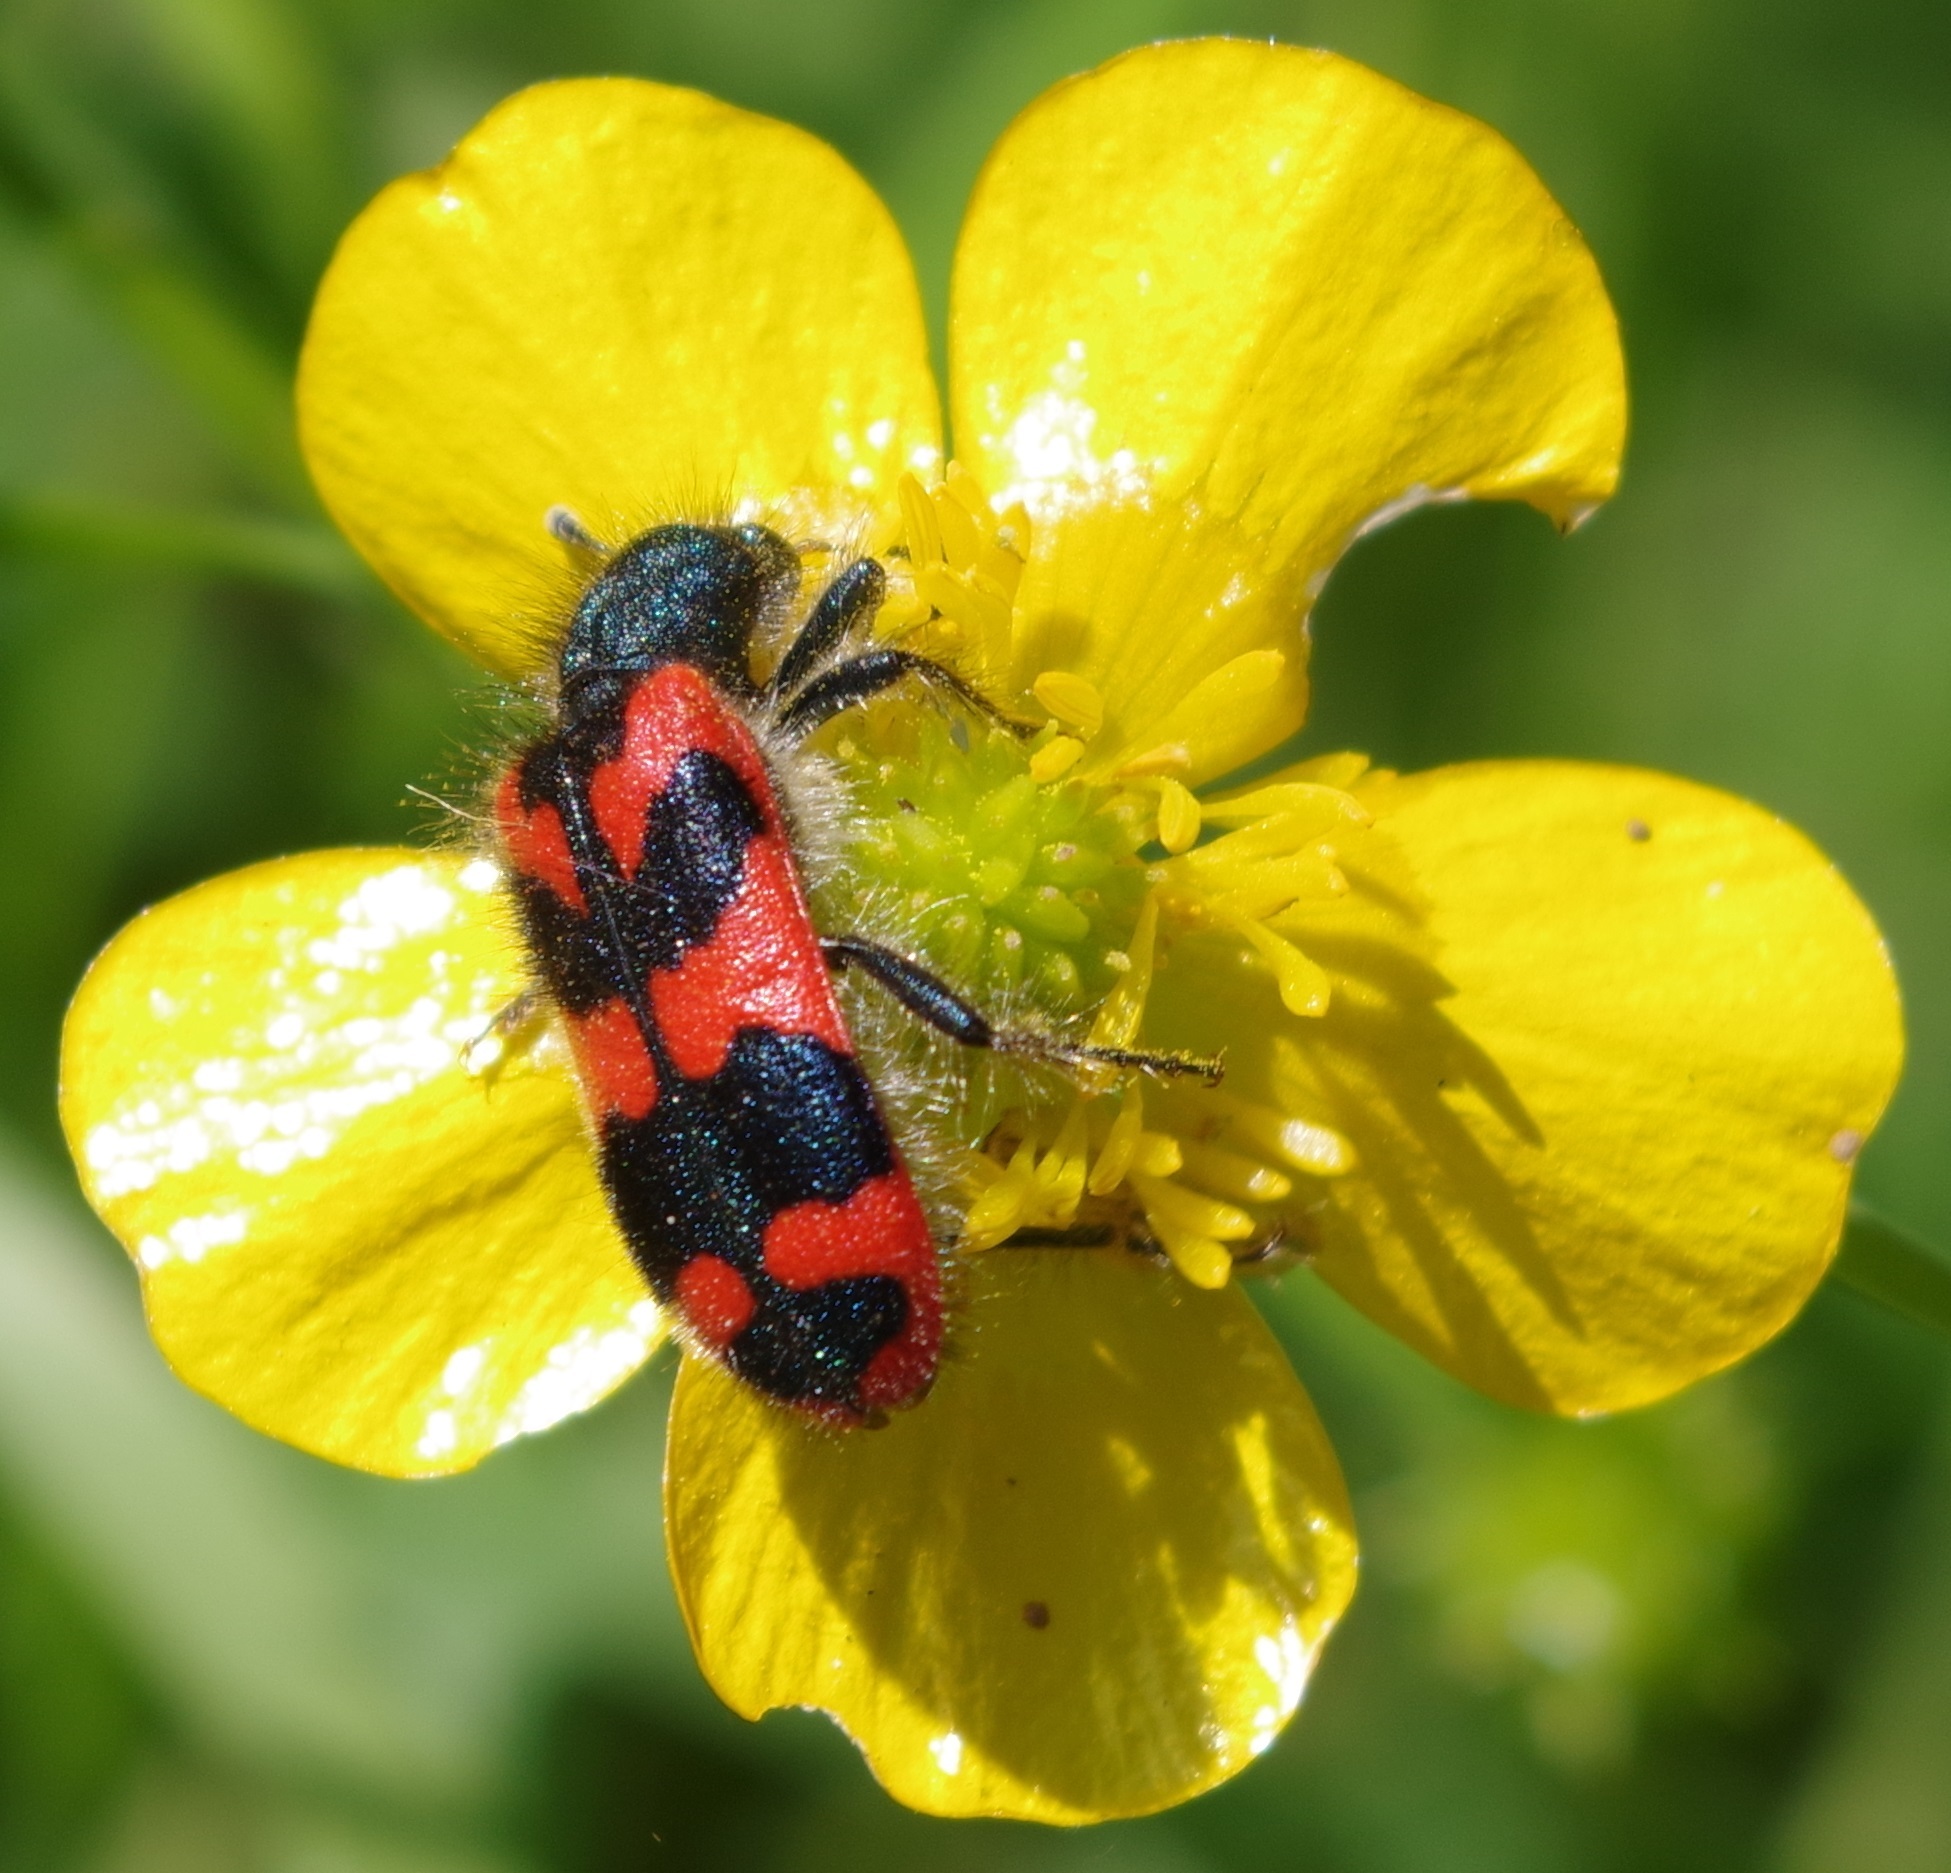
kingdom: Animalia
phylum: Arthropoda
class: Insecta
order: Coleoptera
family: Cleridae
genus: Trichodes
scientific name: Trichodes alvearius
